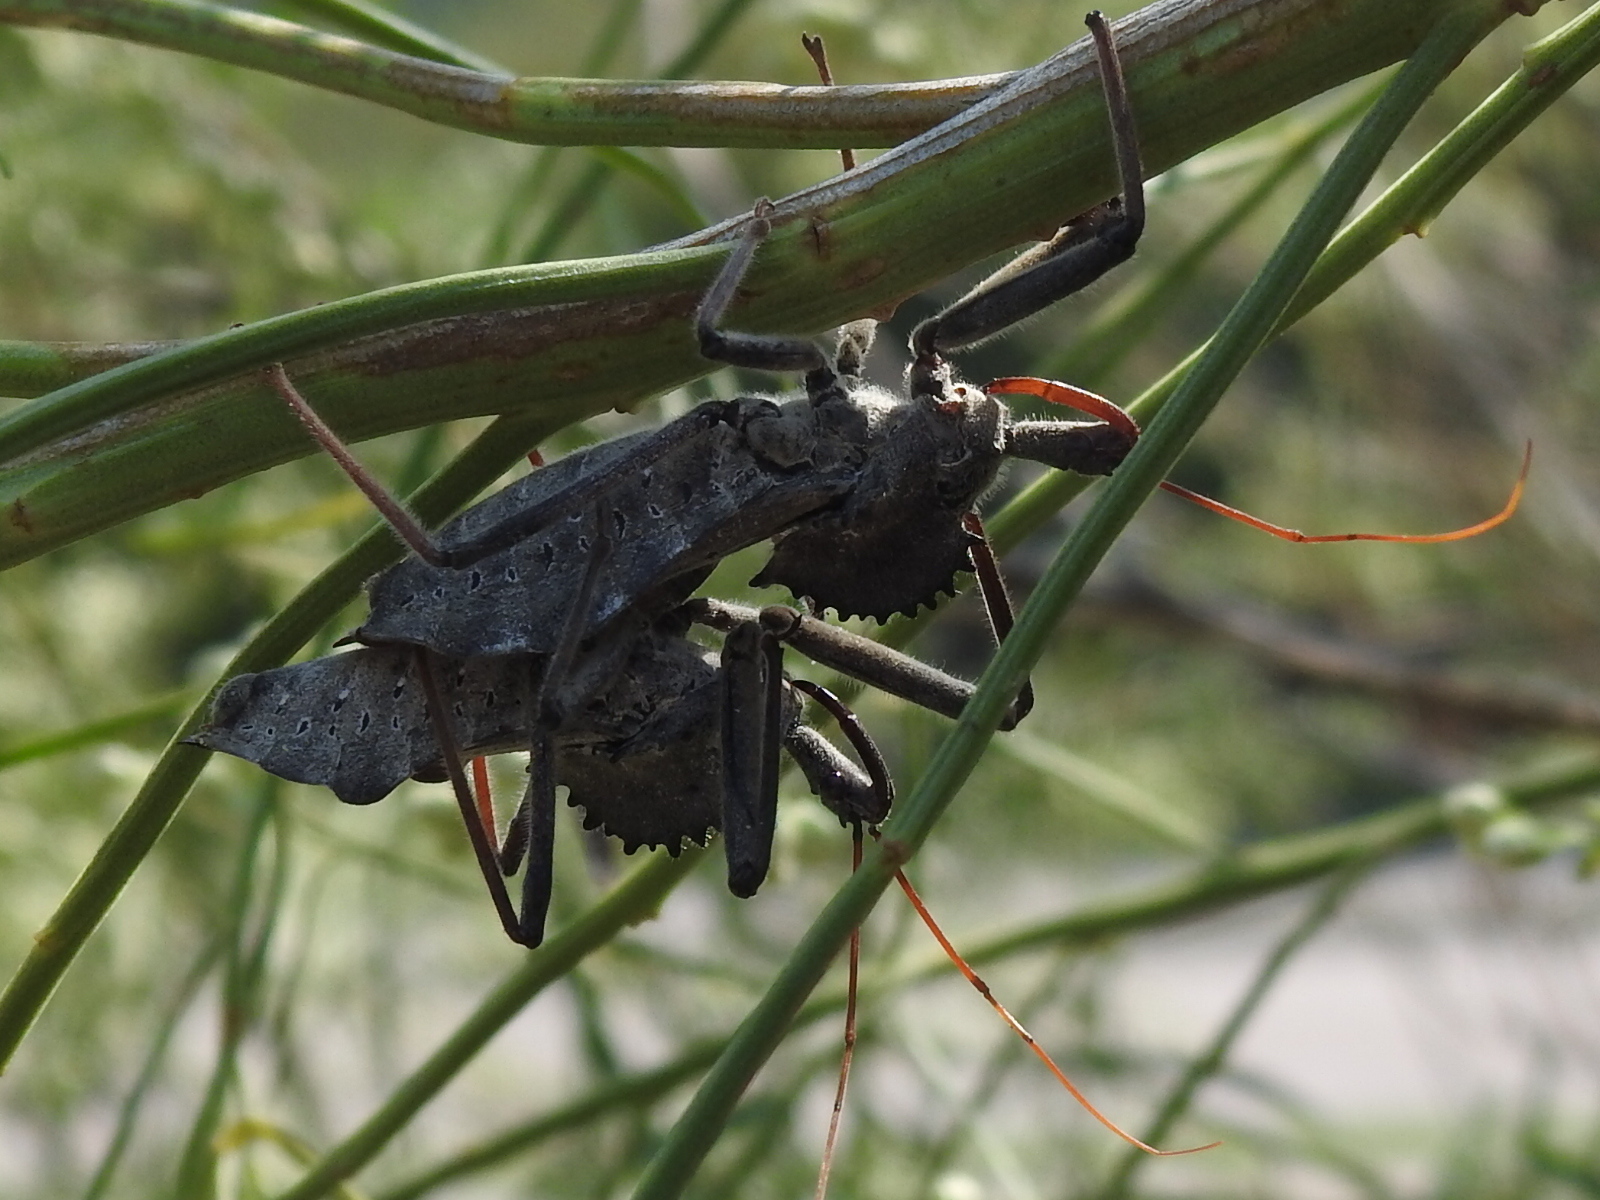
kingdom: Animalia
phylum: Arthropoda
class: Insecta
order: Hemiptera
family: Reduviidae
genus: Arilus
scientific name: Arilus cristatus
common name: North american wheel bug
